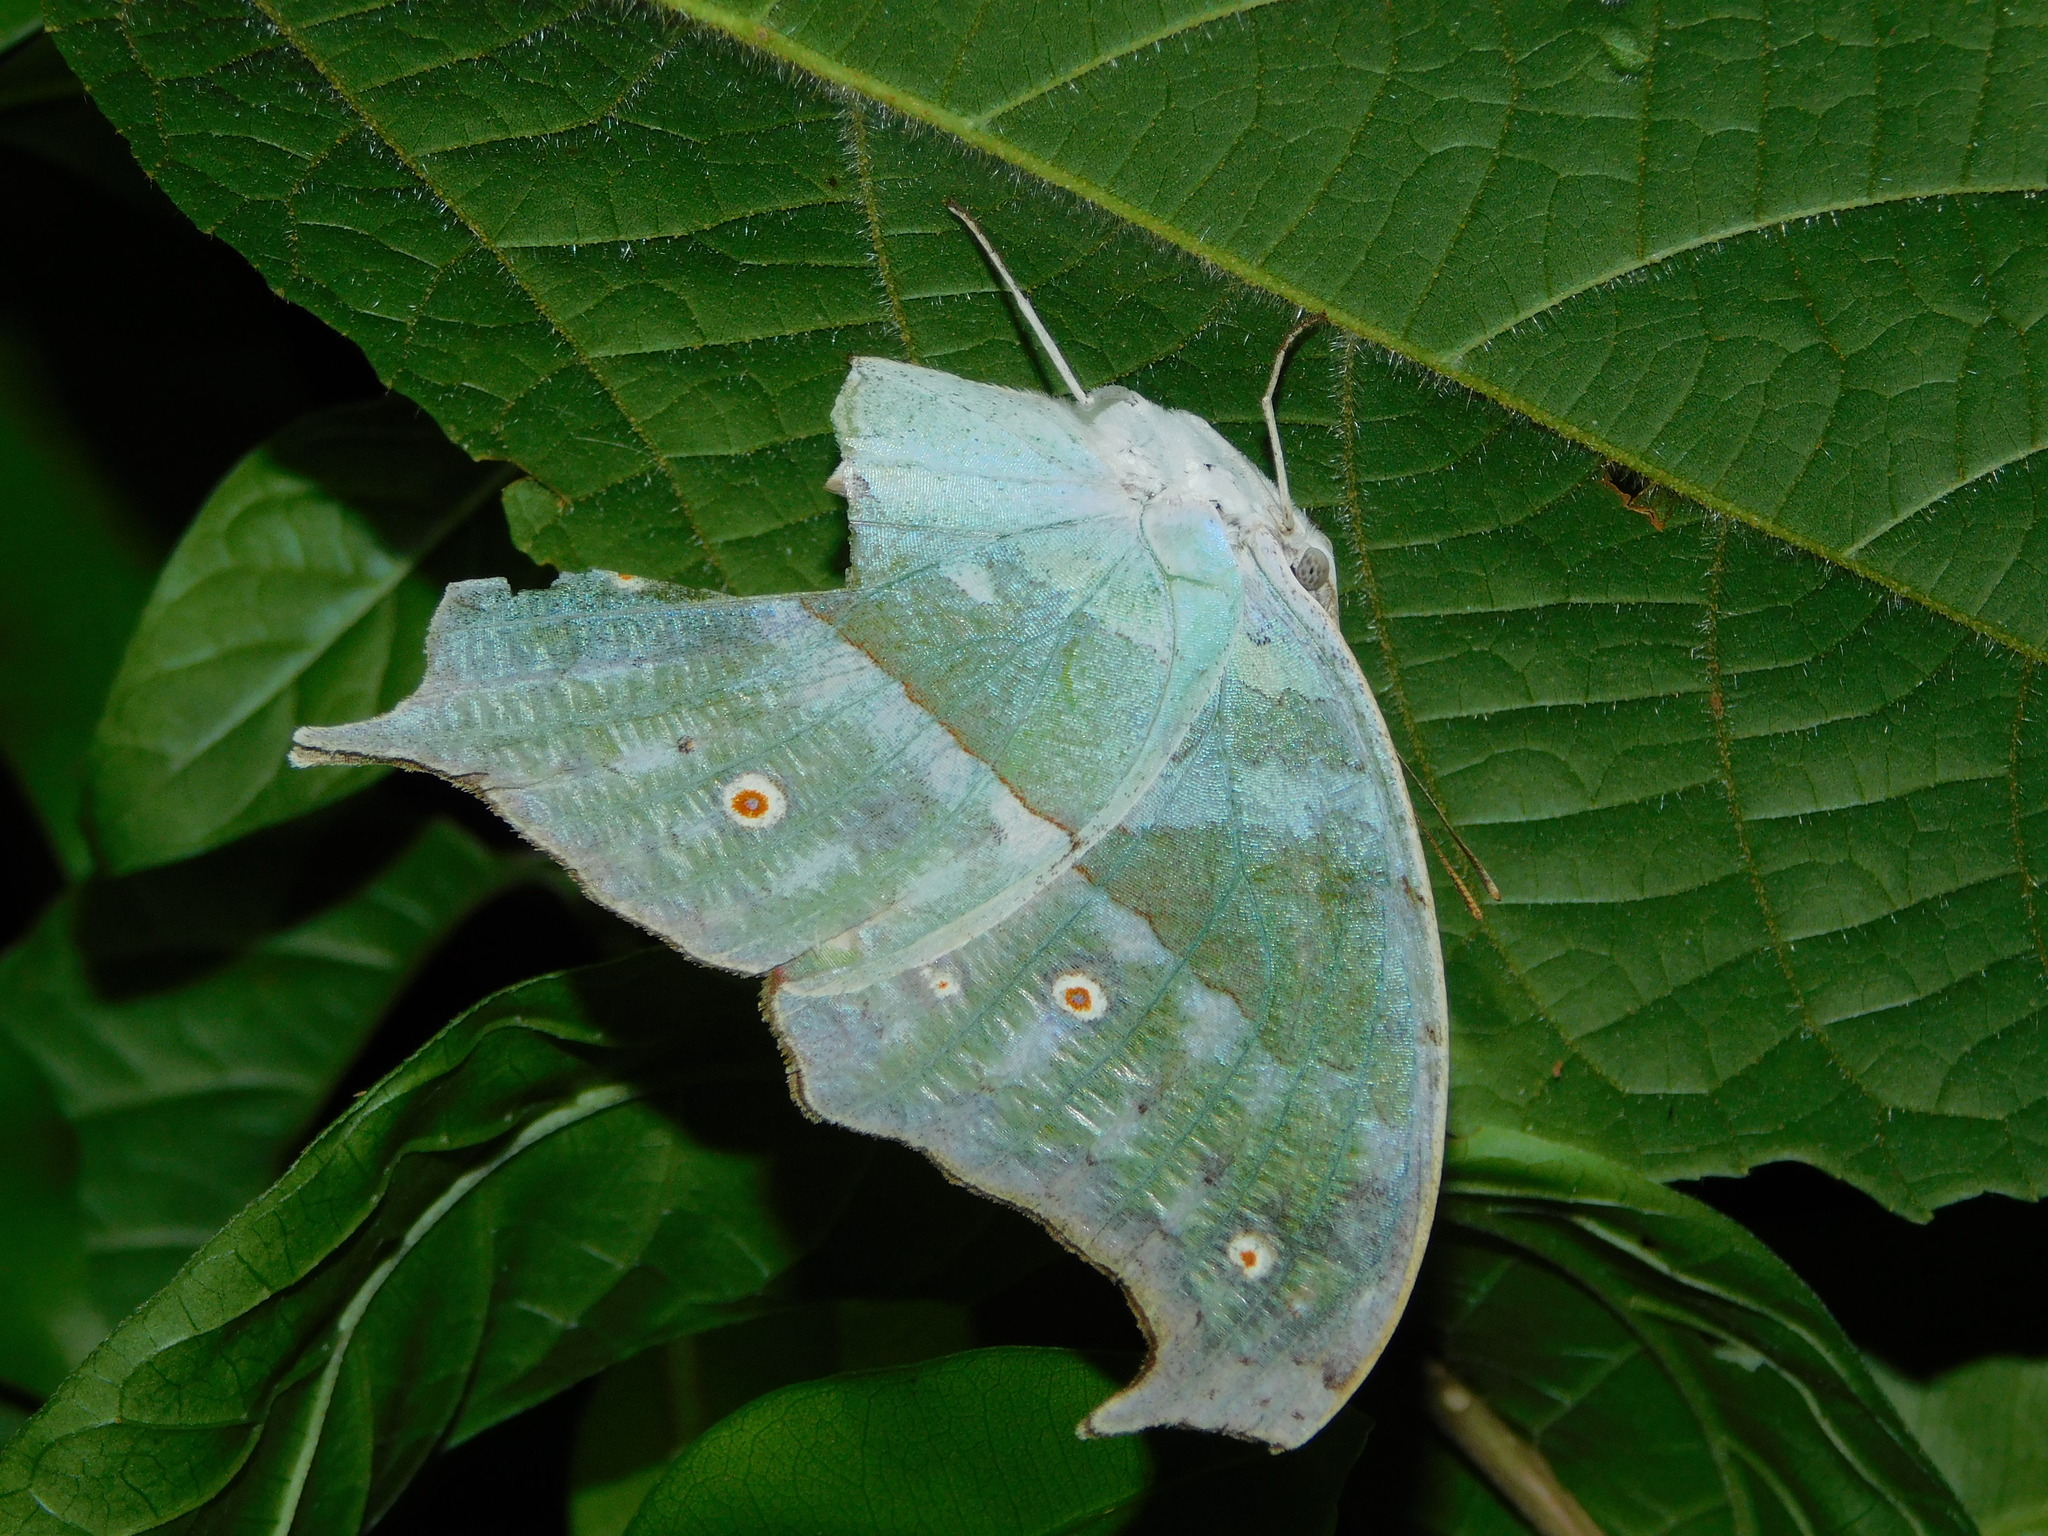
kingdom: Animalia
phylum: Arthropoda
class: Insecta
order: Lepidoptera
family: Nymphalidae
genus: Salamis
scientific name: Salamis Protogoniomorpha parhassus
